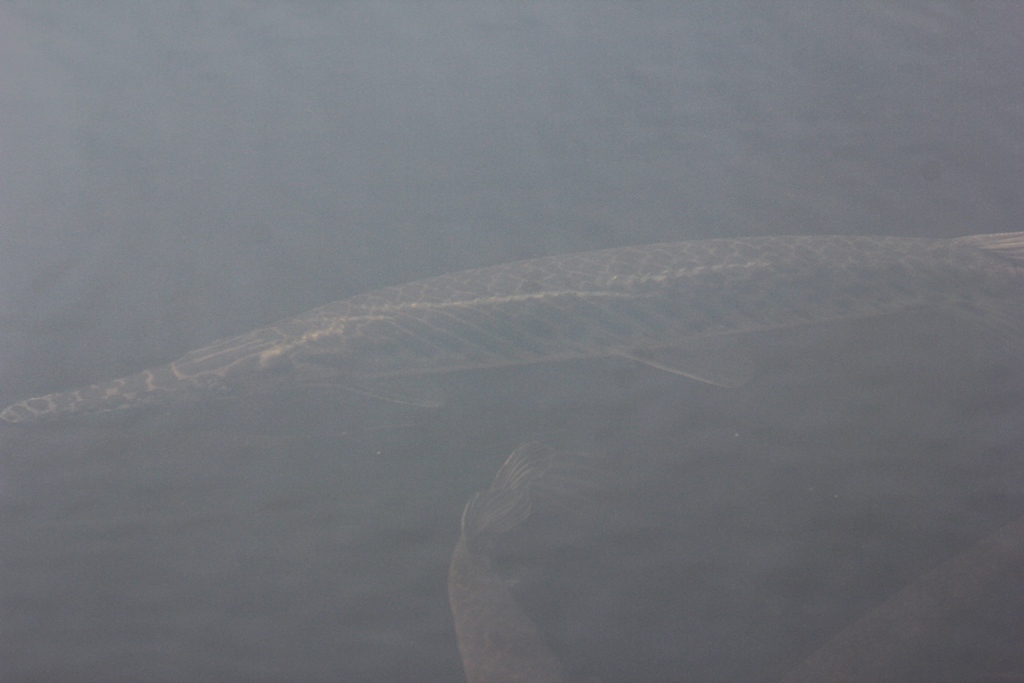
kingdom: Animalia
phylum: Chordata
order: Lepisosteiformes
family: Lepisosteidae
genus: Lepisosteus
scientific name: Lepisosteus platyrhincus
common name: Florida gar
